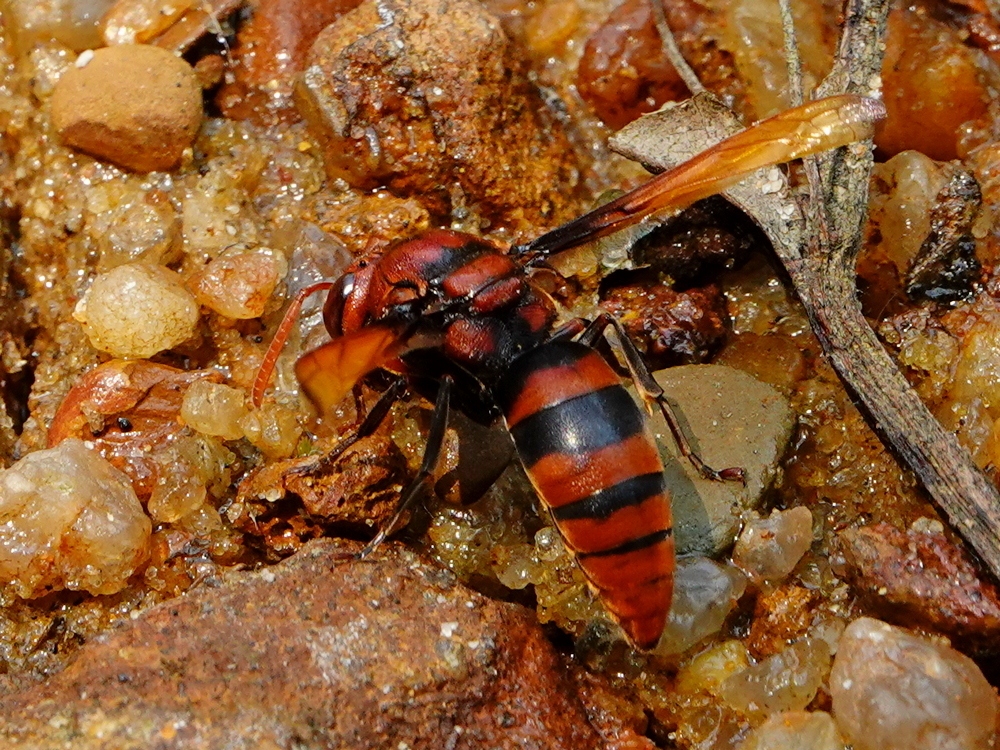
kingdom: Animalia
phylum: Arthropoda
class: Insecta
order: Hymenoptera
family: Eumenidae
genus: Rhynchium
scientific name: Rhynchium brunneum
